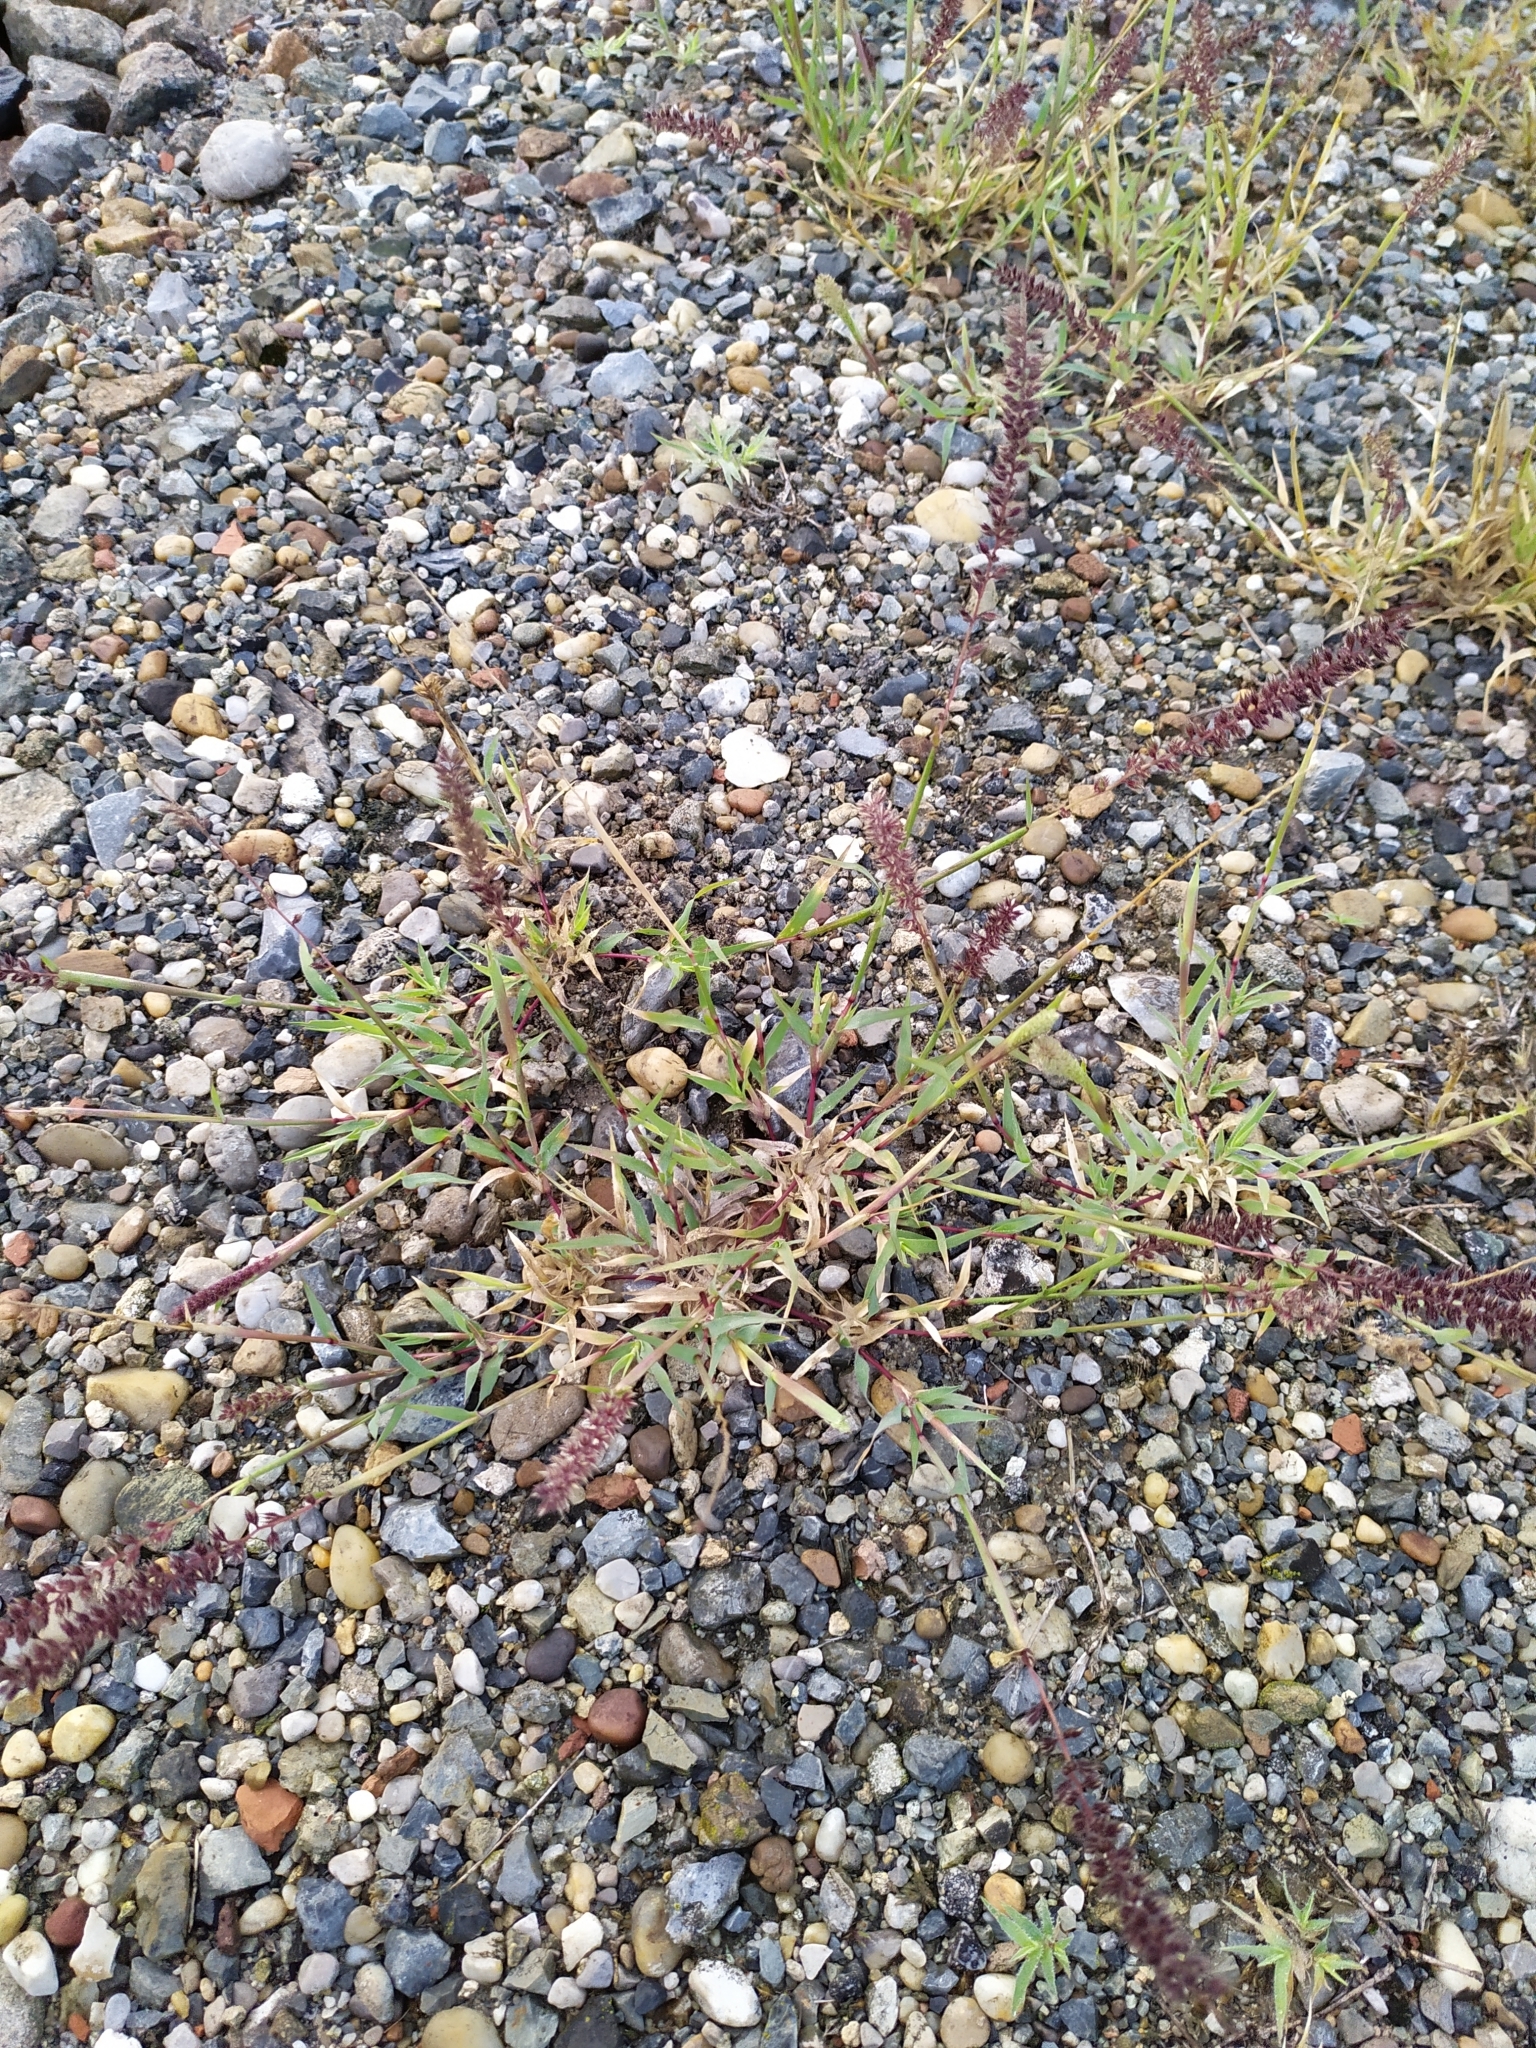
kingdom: Plantae
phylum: Tracheophyta
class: Liliopsida
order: Poales
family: Poaceae
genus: Tragus
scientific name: Tragus racemosus
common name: European bur-grass
